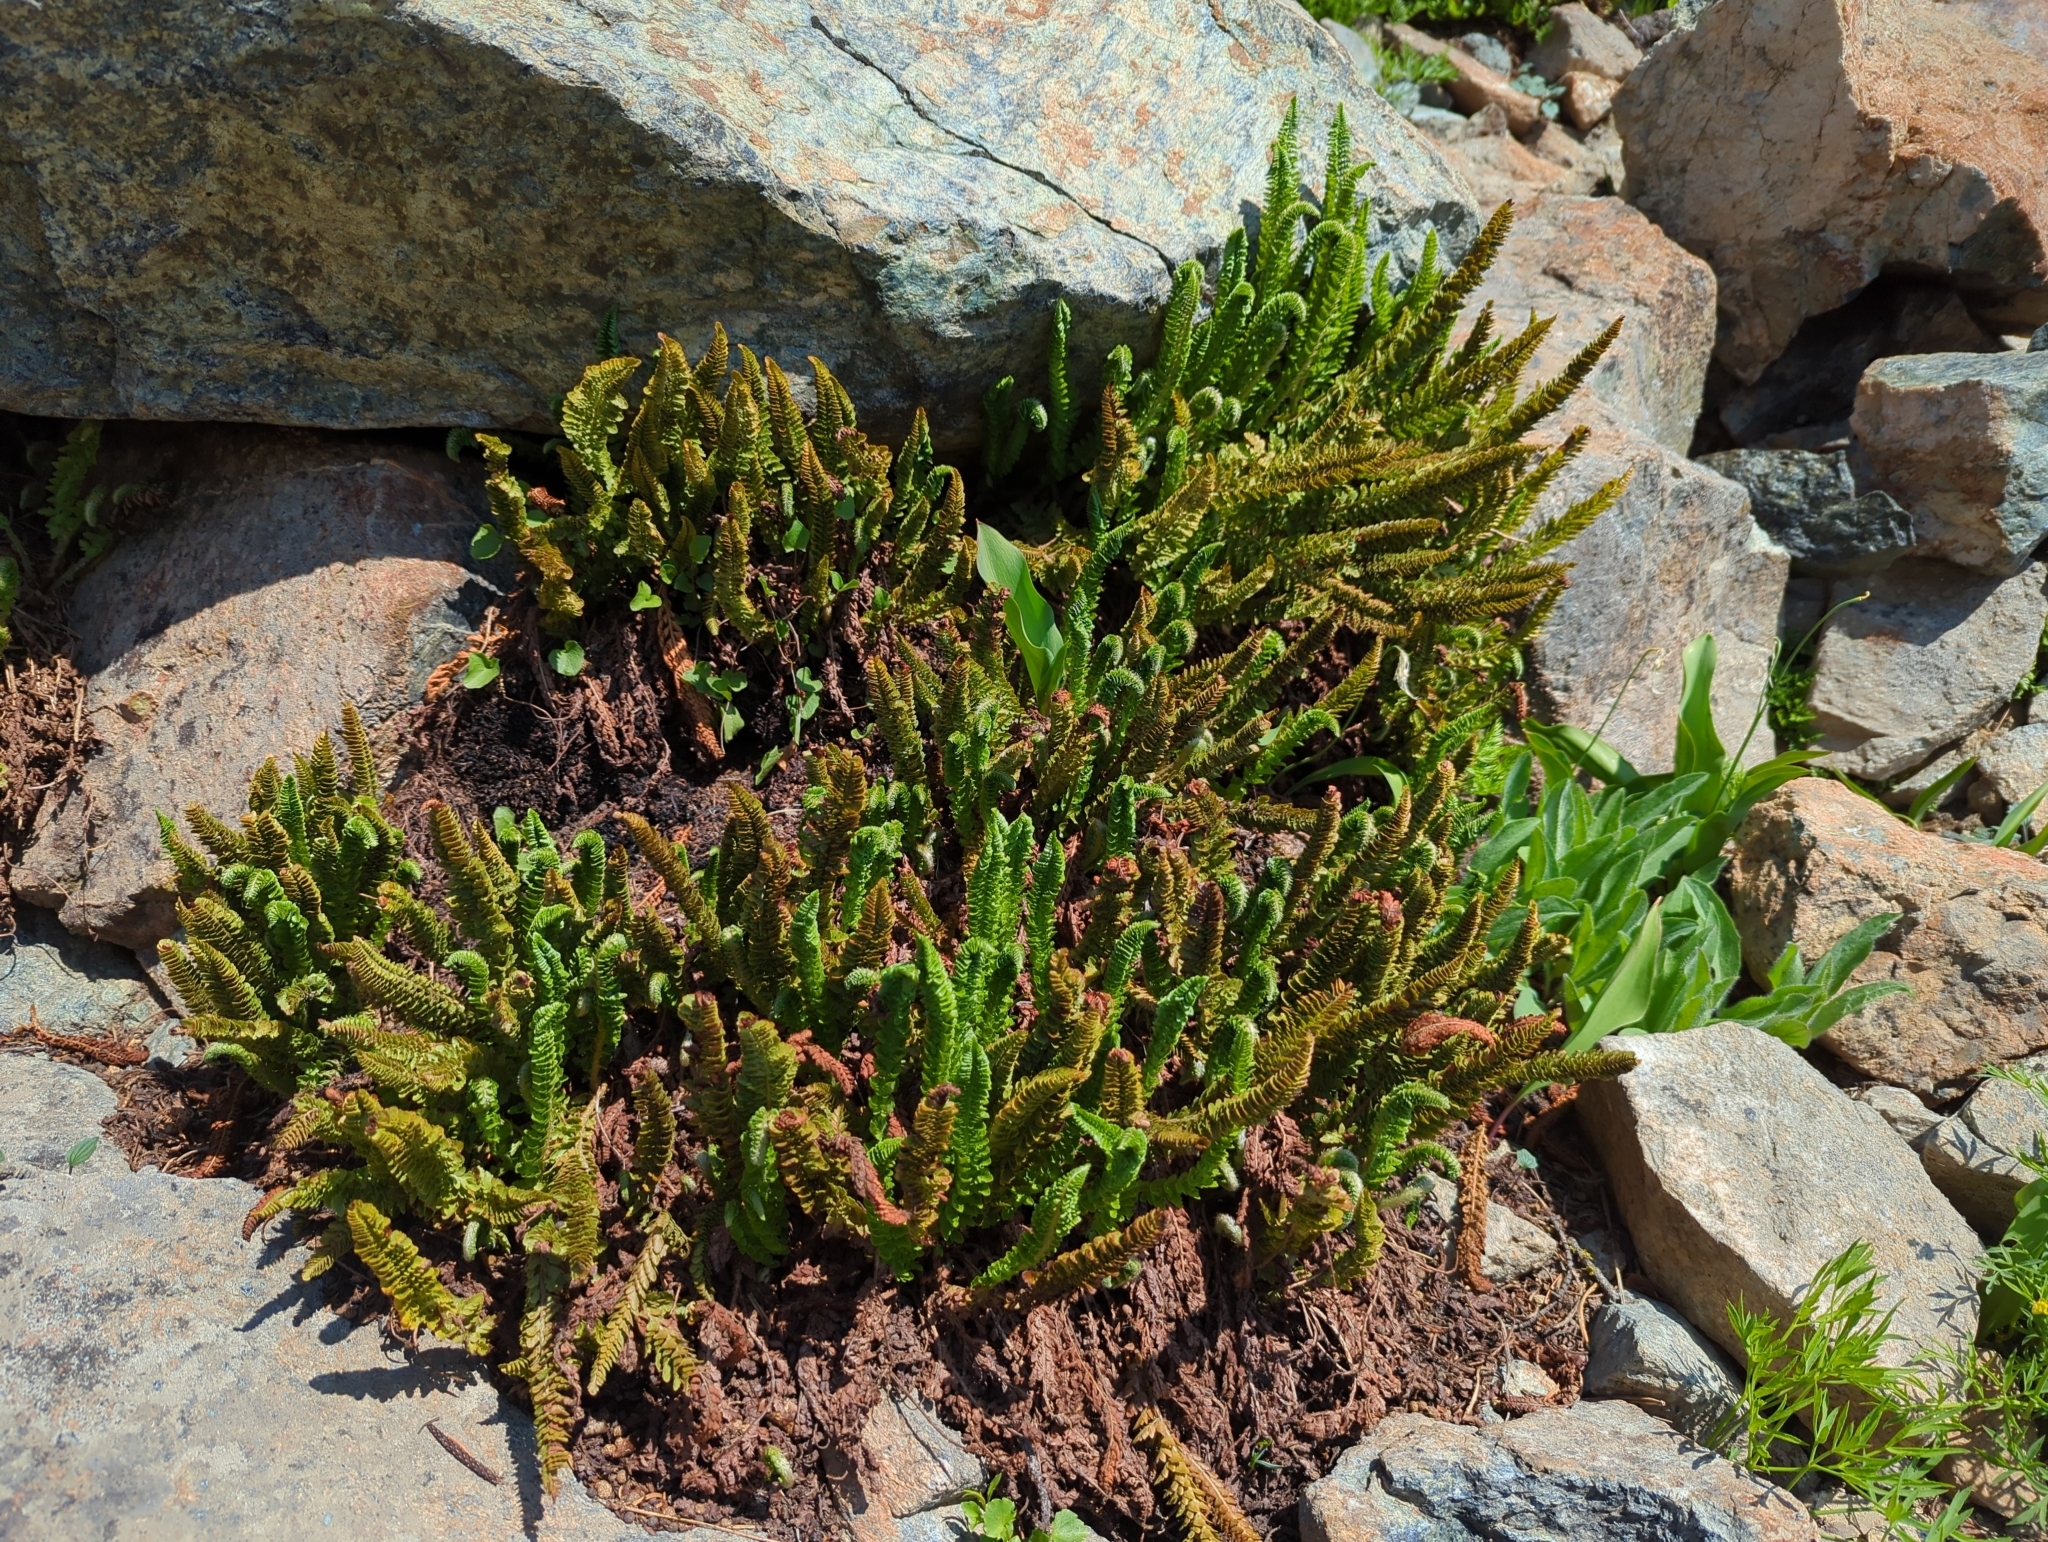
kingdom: Plantae
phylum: Tracheophyta
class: Polypodiopsida
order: Polypodiales
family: Dryopteridaceae
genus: Polystichum
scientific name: Polystichum lemmonii
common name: Lemmon's holly fern
